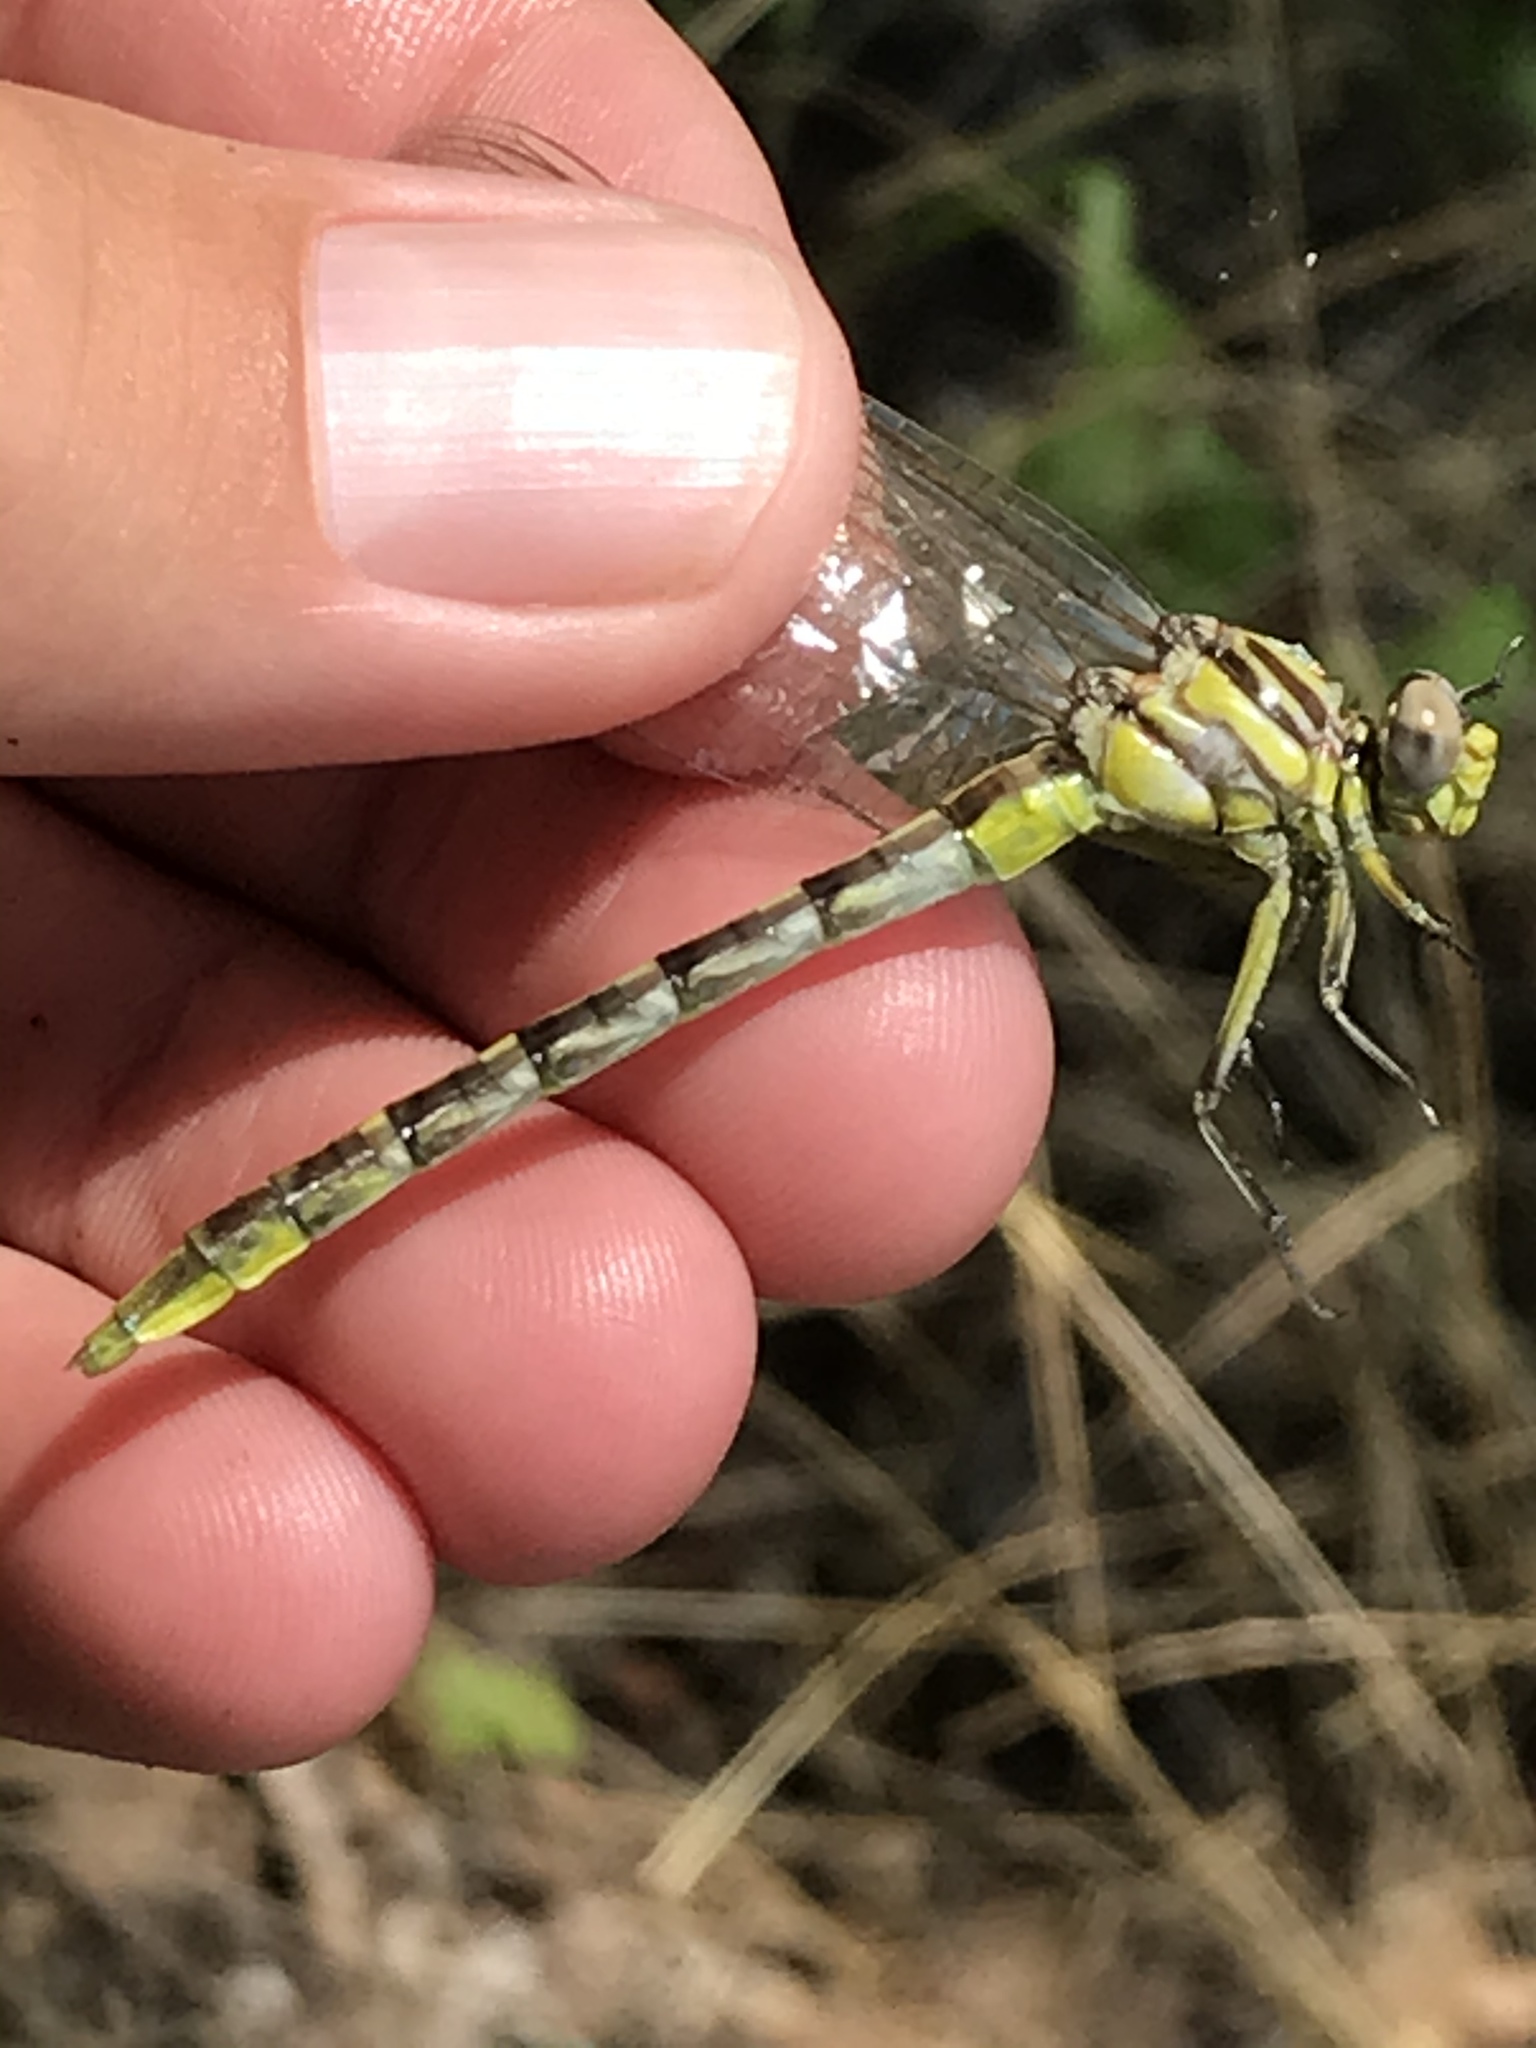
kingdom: Animalia
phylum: Arthropoda
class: Insecta
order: Odonata
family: Gomphidae
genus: Phanogomphus
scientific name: Phanogomphus militaris
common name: Sulphur-tipped clubtail
